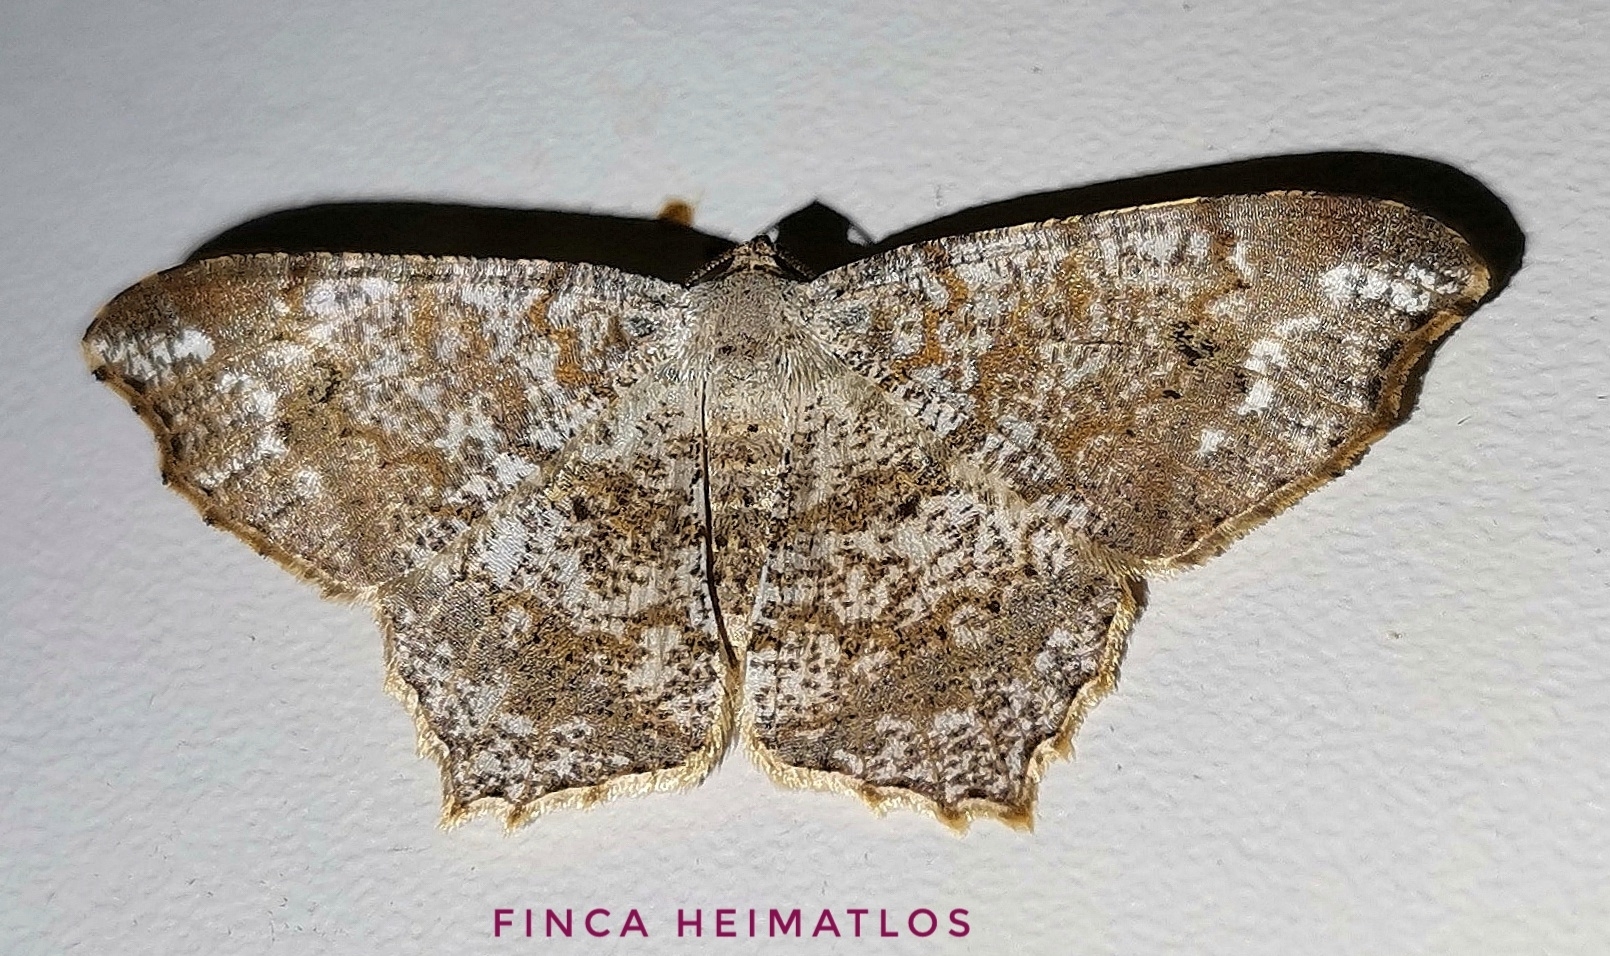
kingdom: Animalia
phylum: Arthropoda
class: Insecta
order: Lepidoptera
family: Geometridae
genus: Macaria
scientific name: Macaria delia
